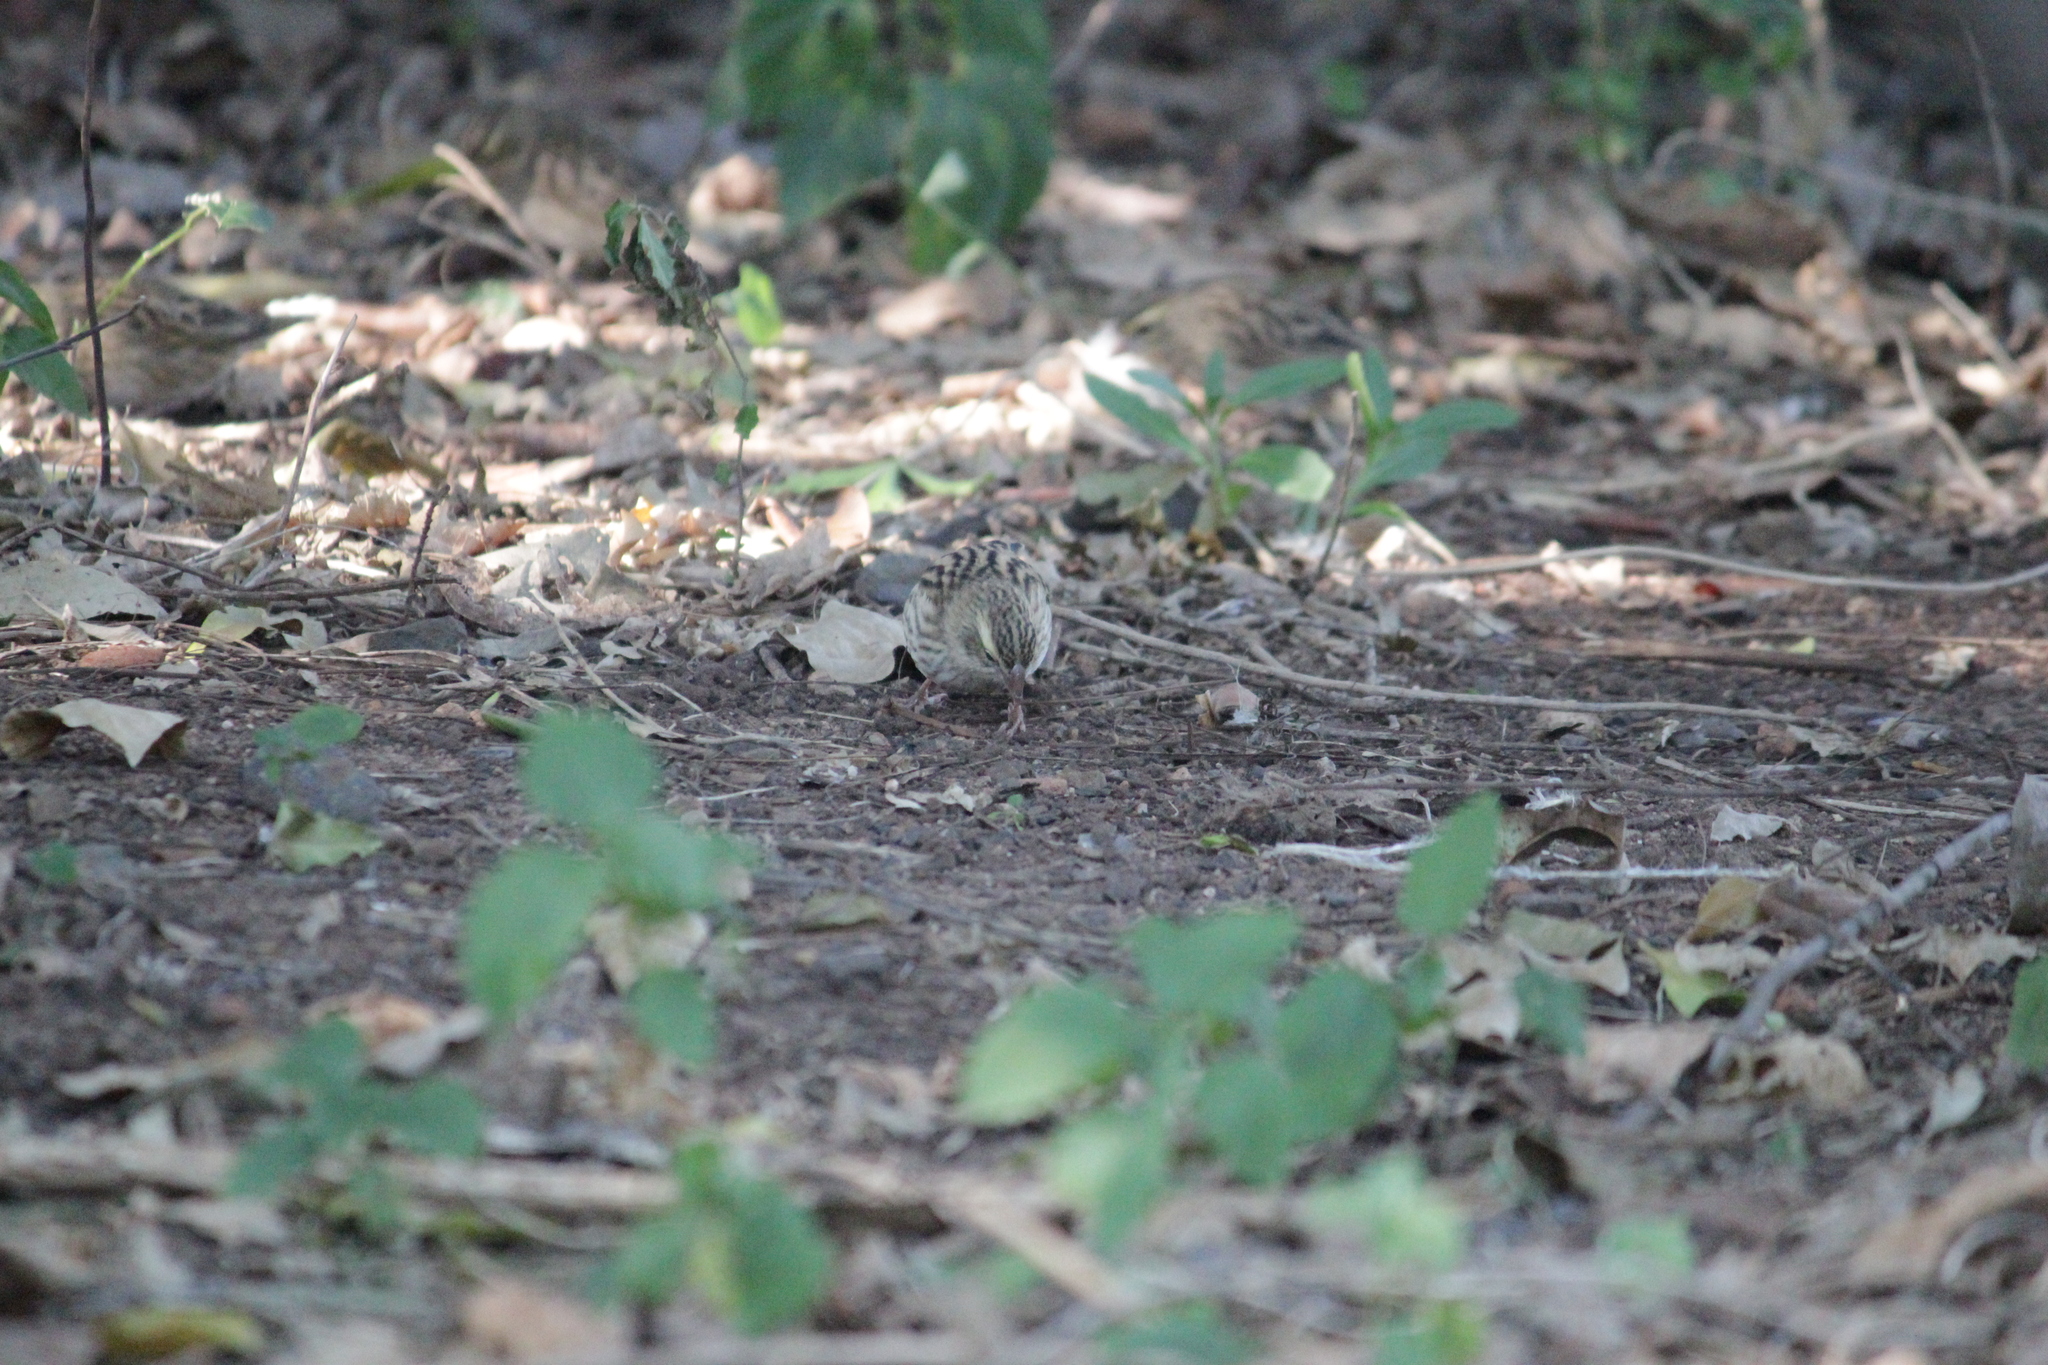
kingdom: Animalia
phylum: Chordata
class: Aves
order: Passeriformes
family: Ploceidae
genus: Euplectes
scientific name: Euplectes orix
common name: Southern red bishop
